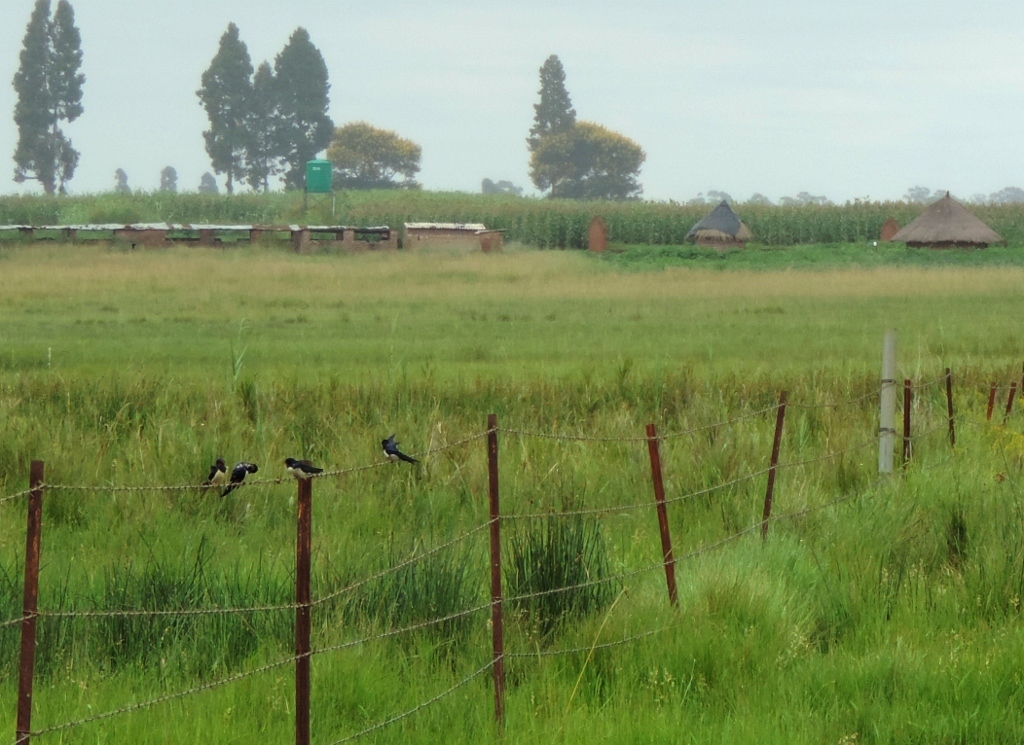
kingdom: Animalia
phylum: Chordata
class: Aves
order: Passeriformes
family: Hirundinidae
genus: Hirundo
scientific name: Hirundo rustica
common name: Barn swallow
